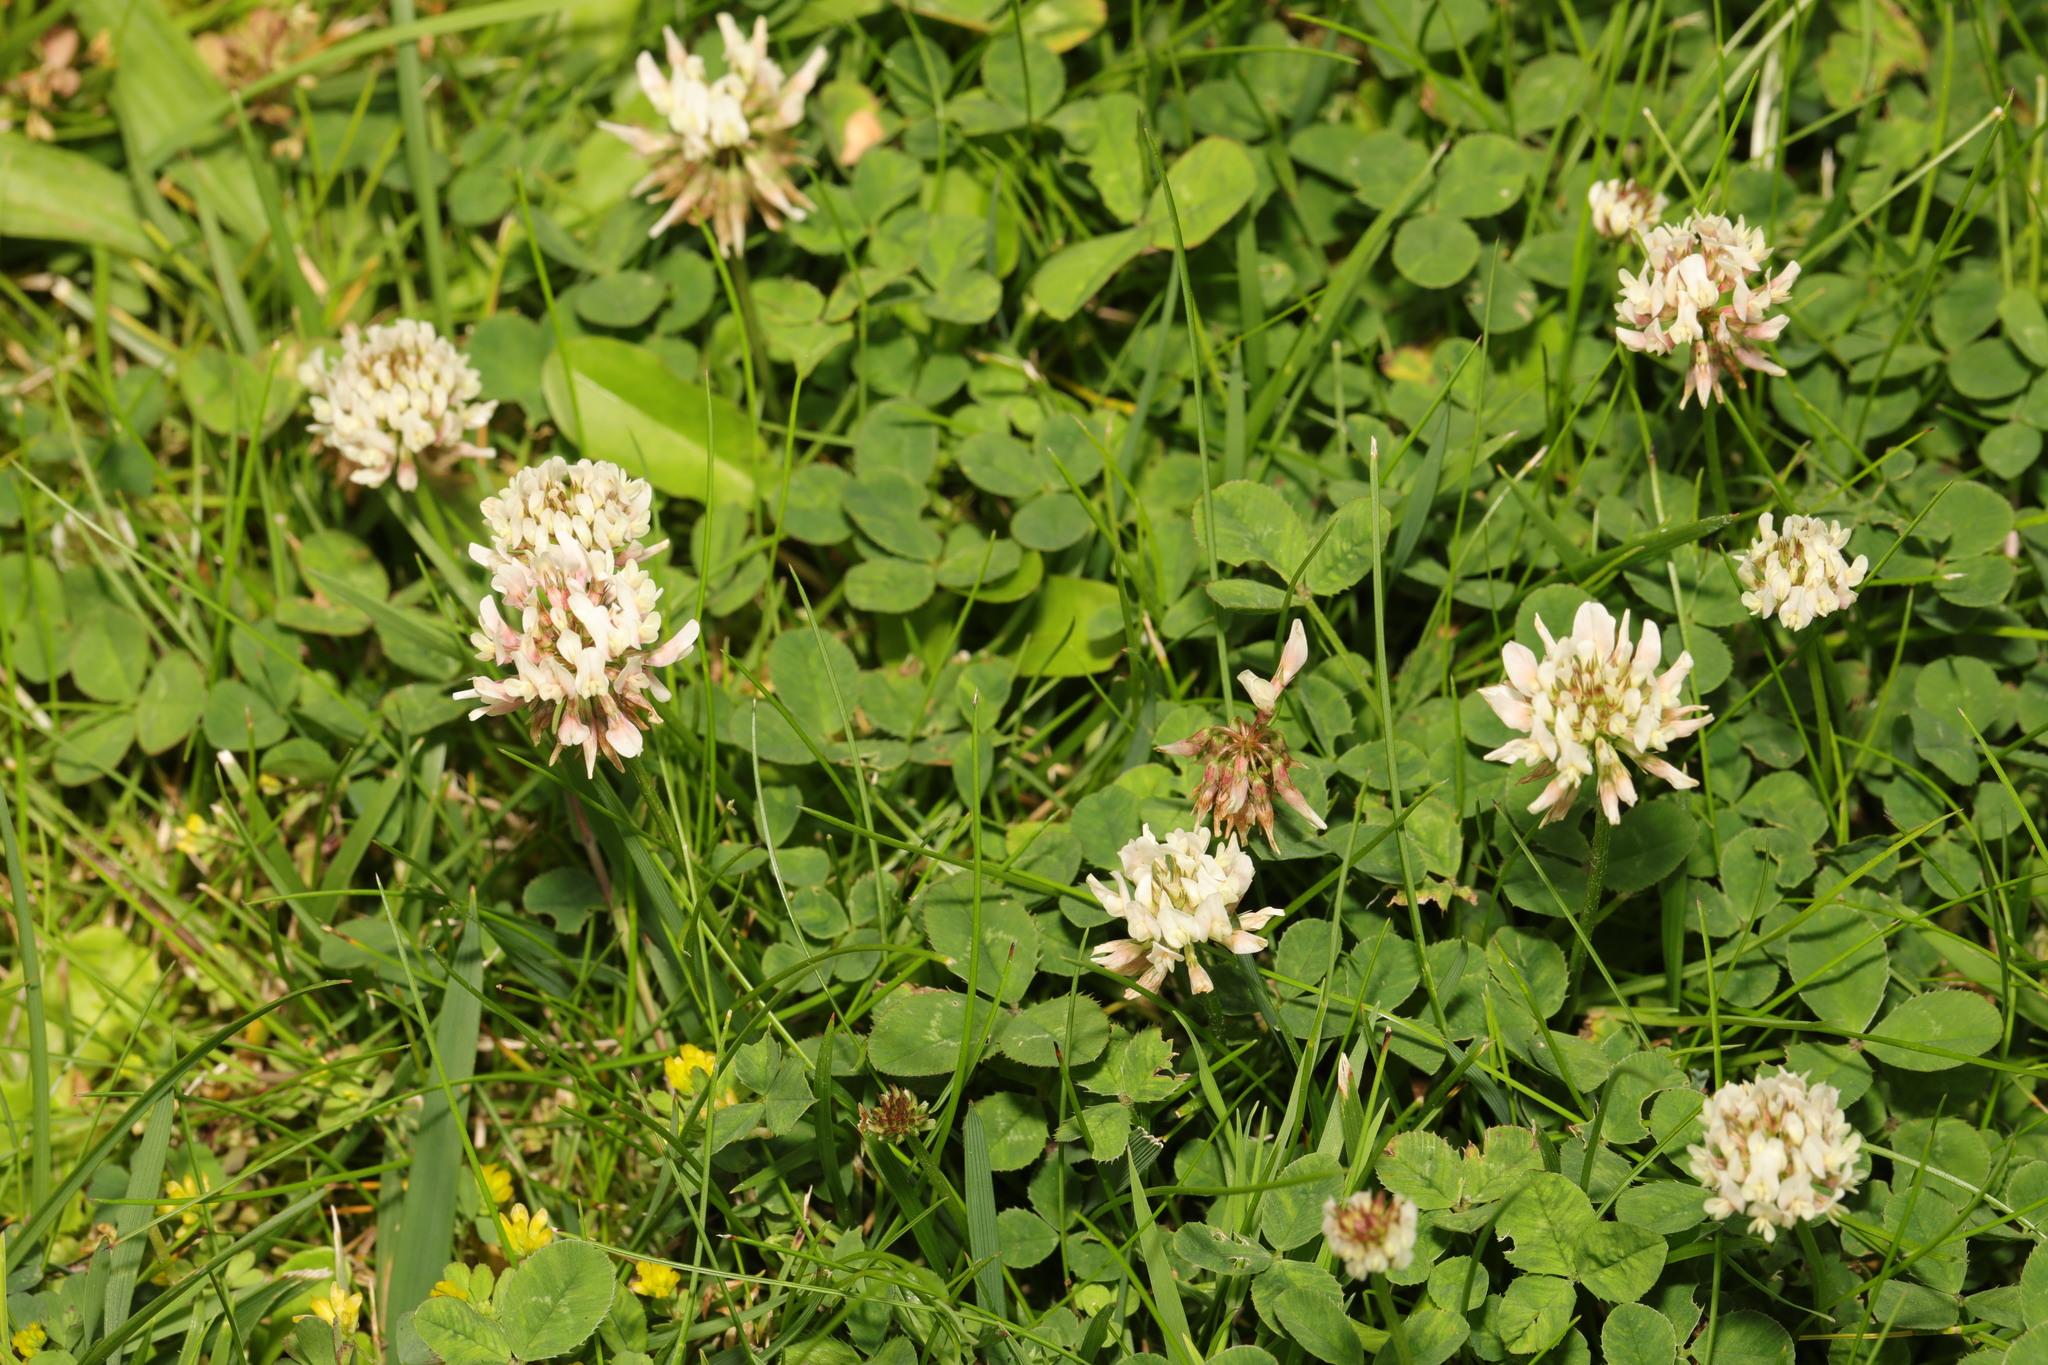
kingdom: Plantae
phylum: Tracheophyta
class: Magnoliopsida
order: Fabales
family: Fabaceae
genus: Trifolium
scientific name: Trifolium repens
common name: White clover
